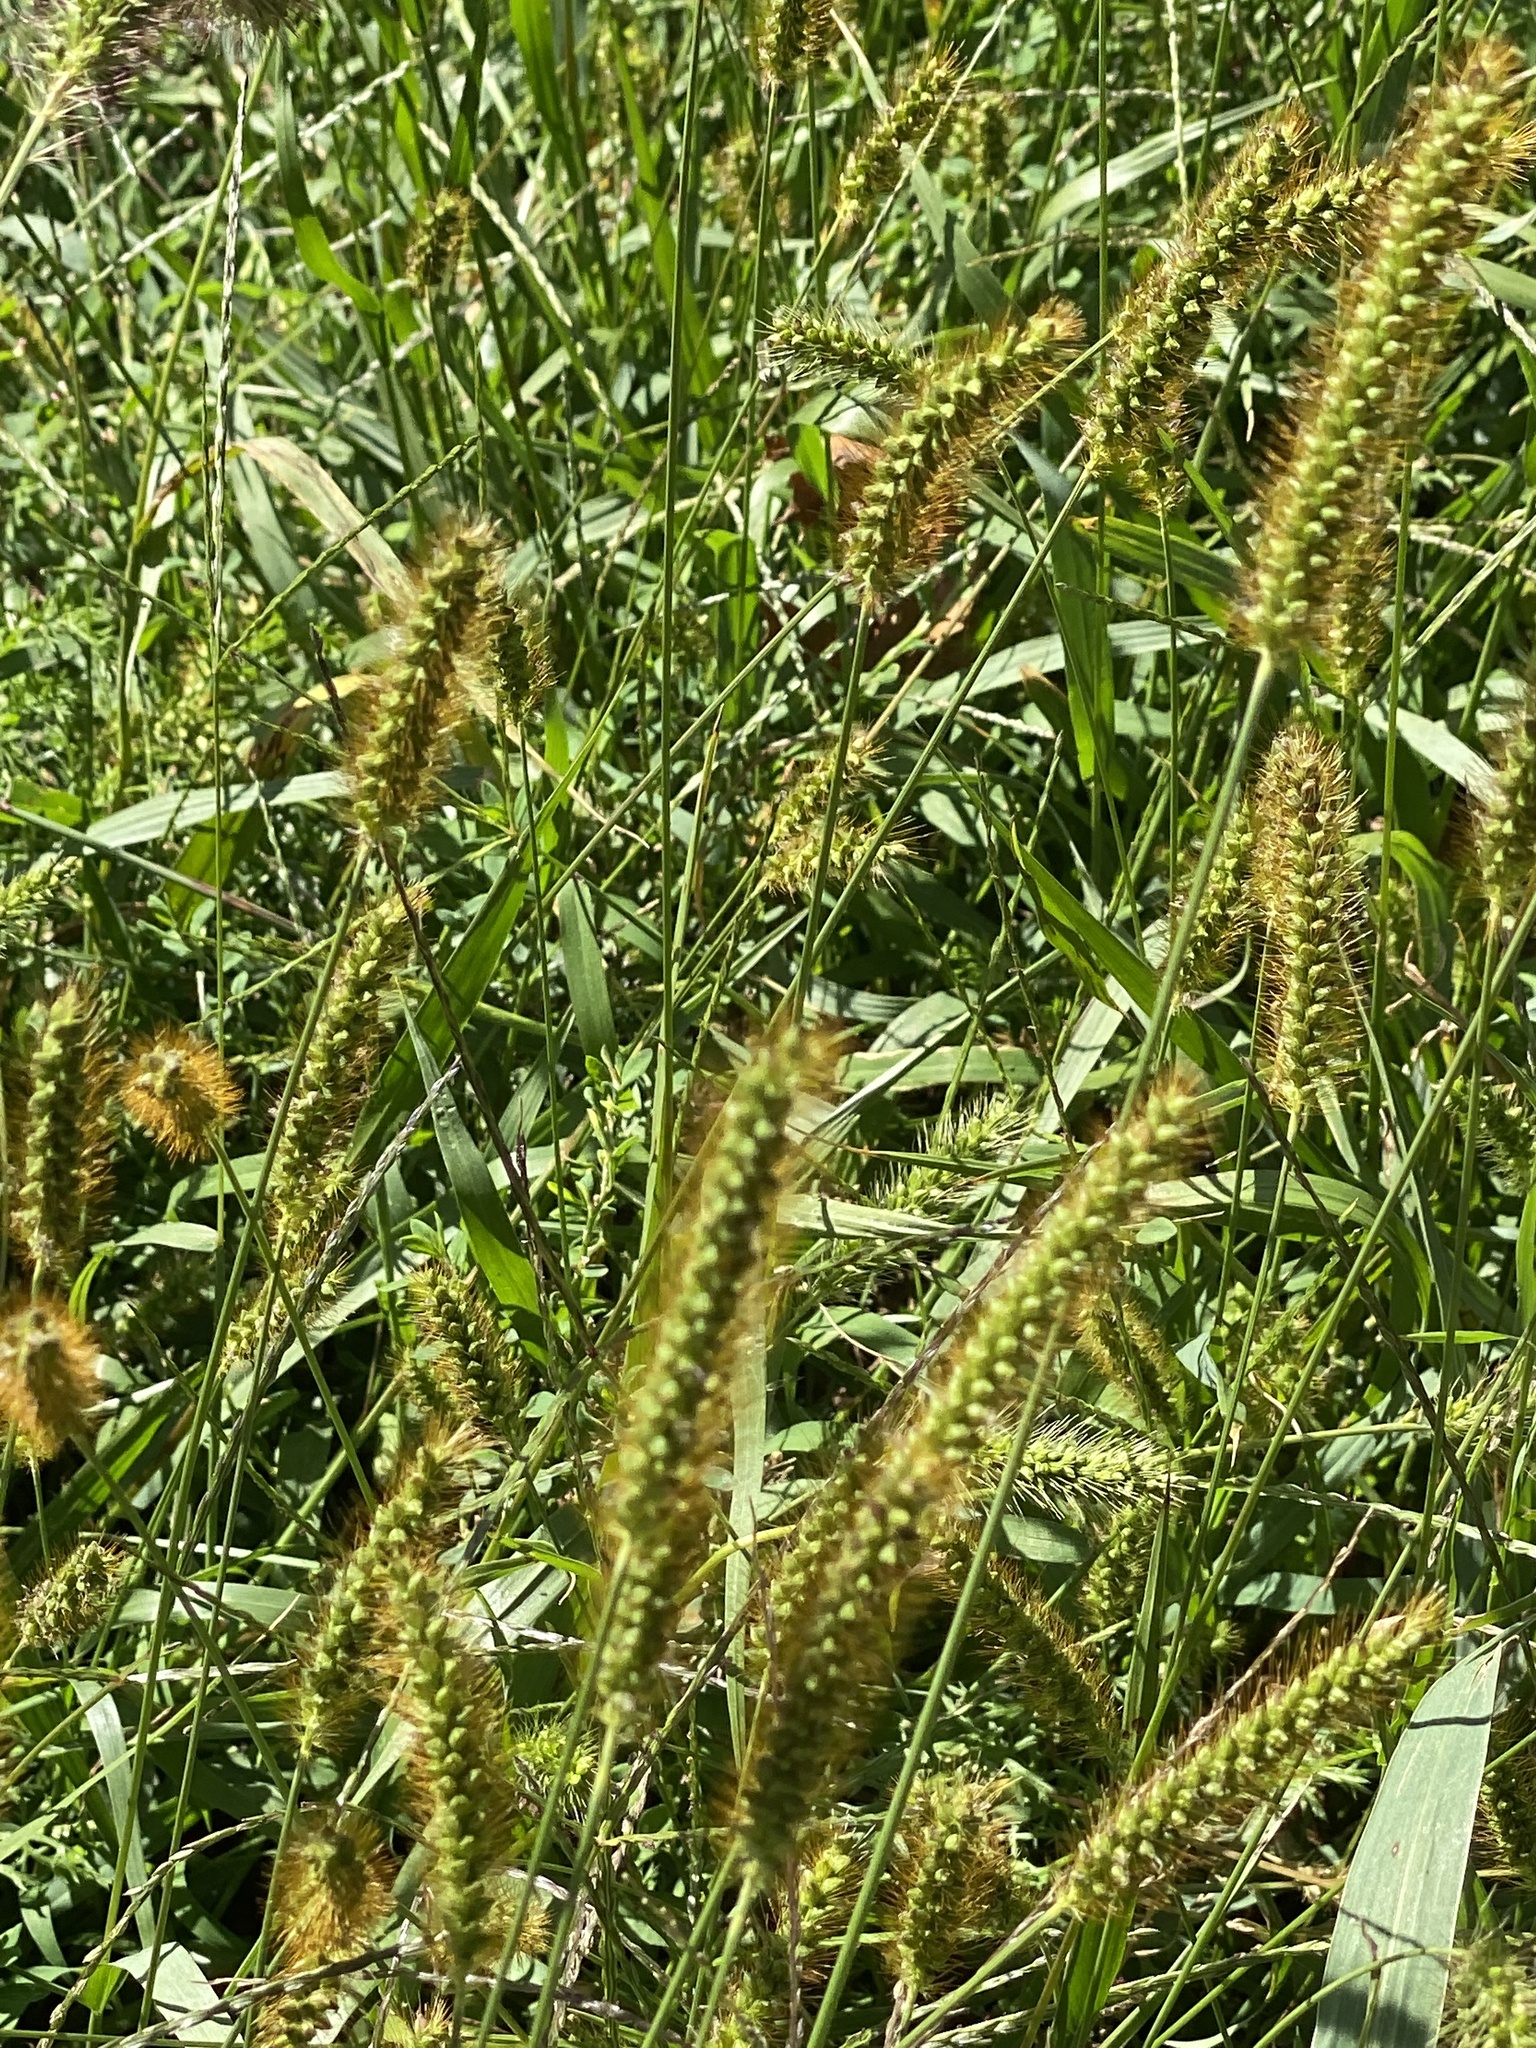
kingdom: Plantae
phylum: Tracheophyta
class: Liliopsida
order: Poales
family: Poaceae
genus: Setaria
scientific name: Setaria pumila
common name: Yellow bristle-grass
